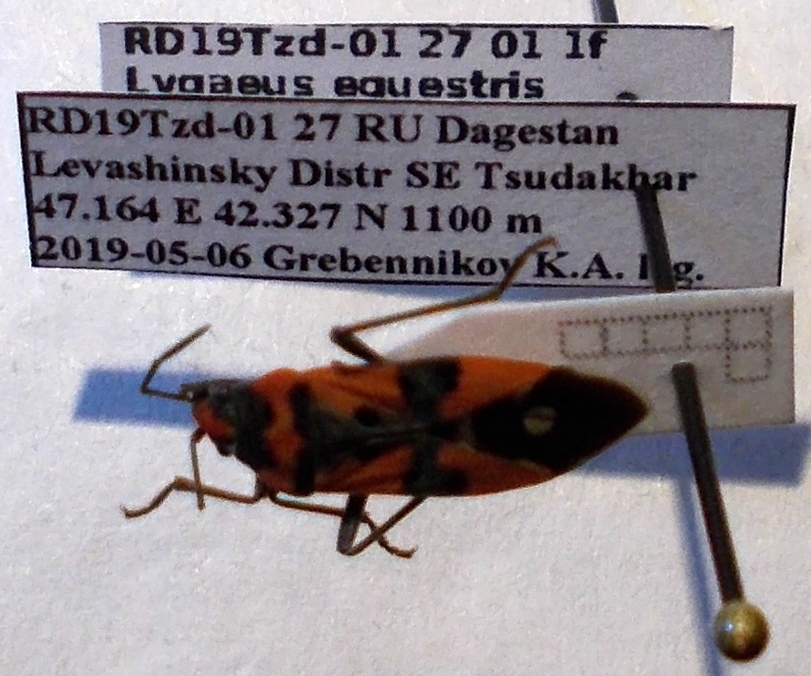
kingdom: Animalia
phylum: Arthropoda
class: Insecta
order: Hemiptera
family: Lygaeidae
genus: Lygaeus
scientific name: Lygaeus equestris
